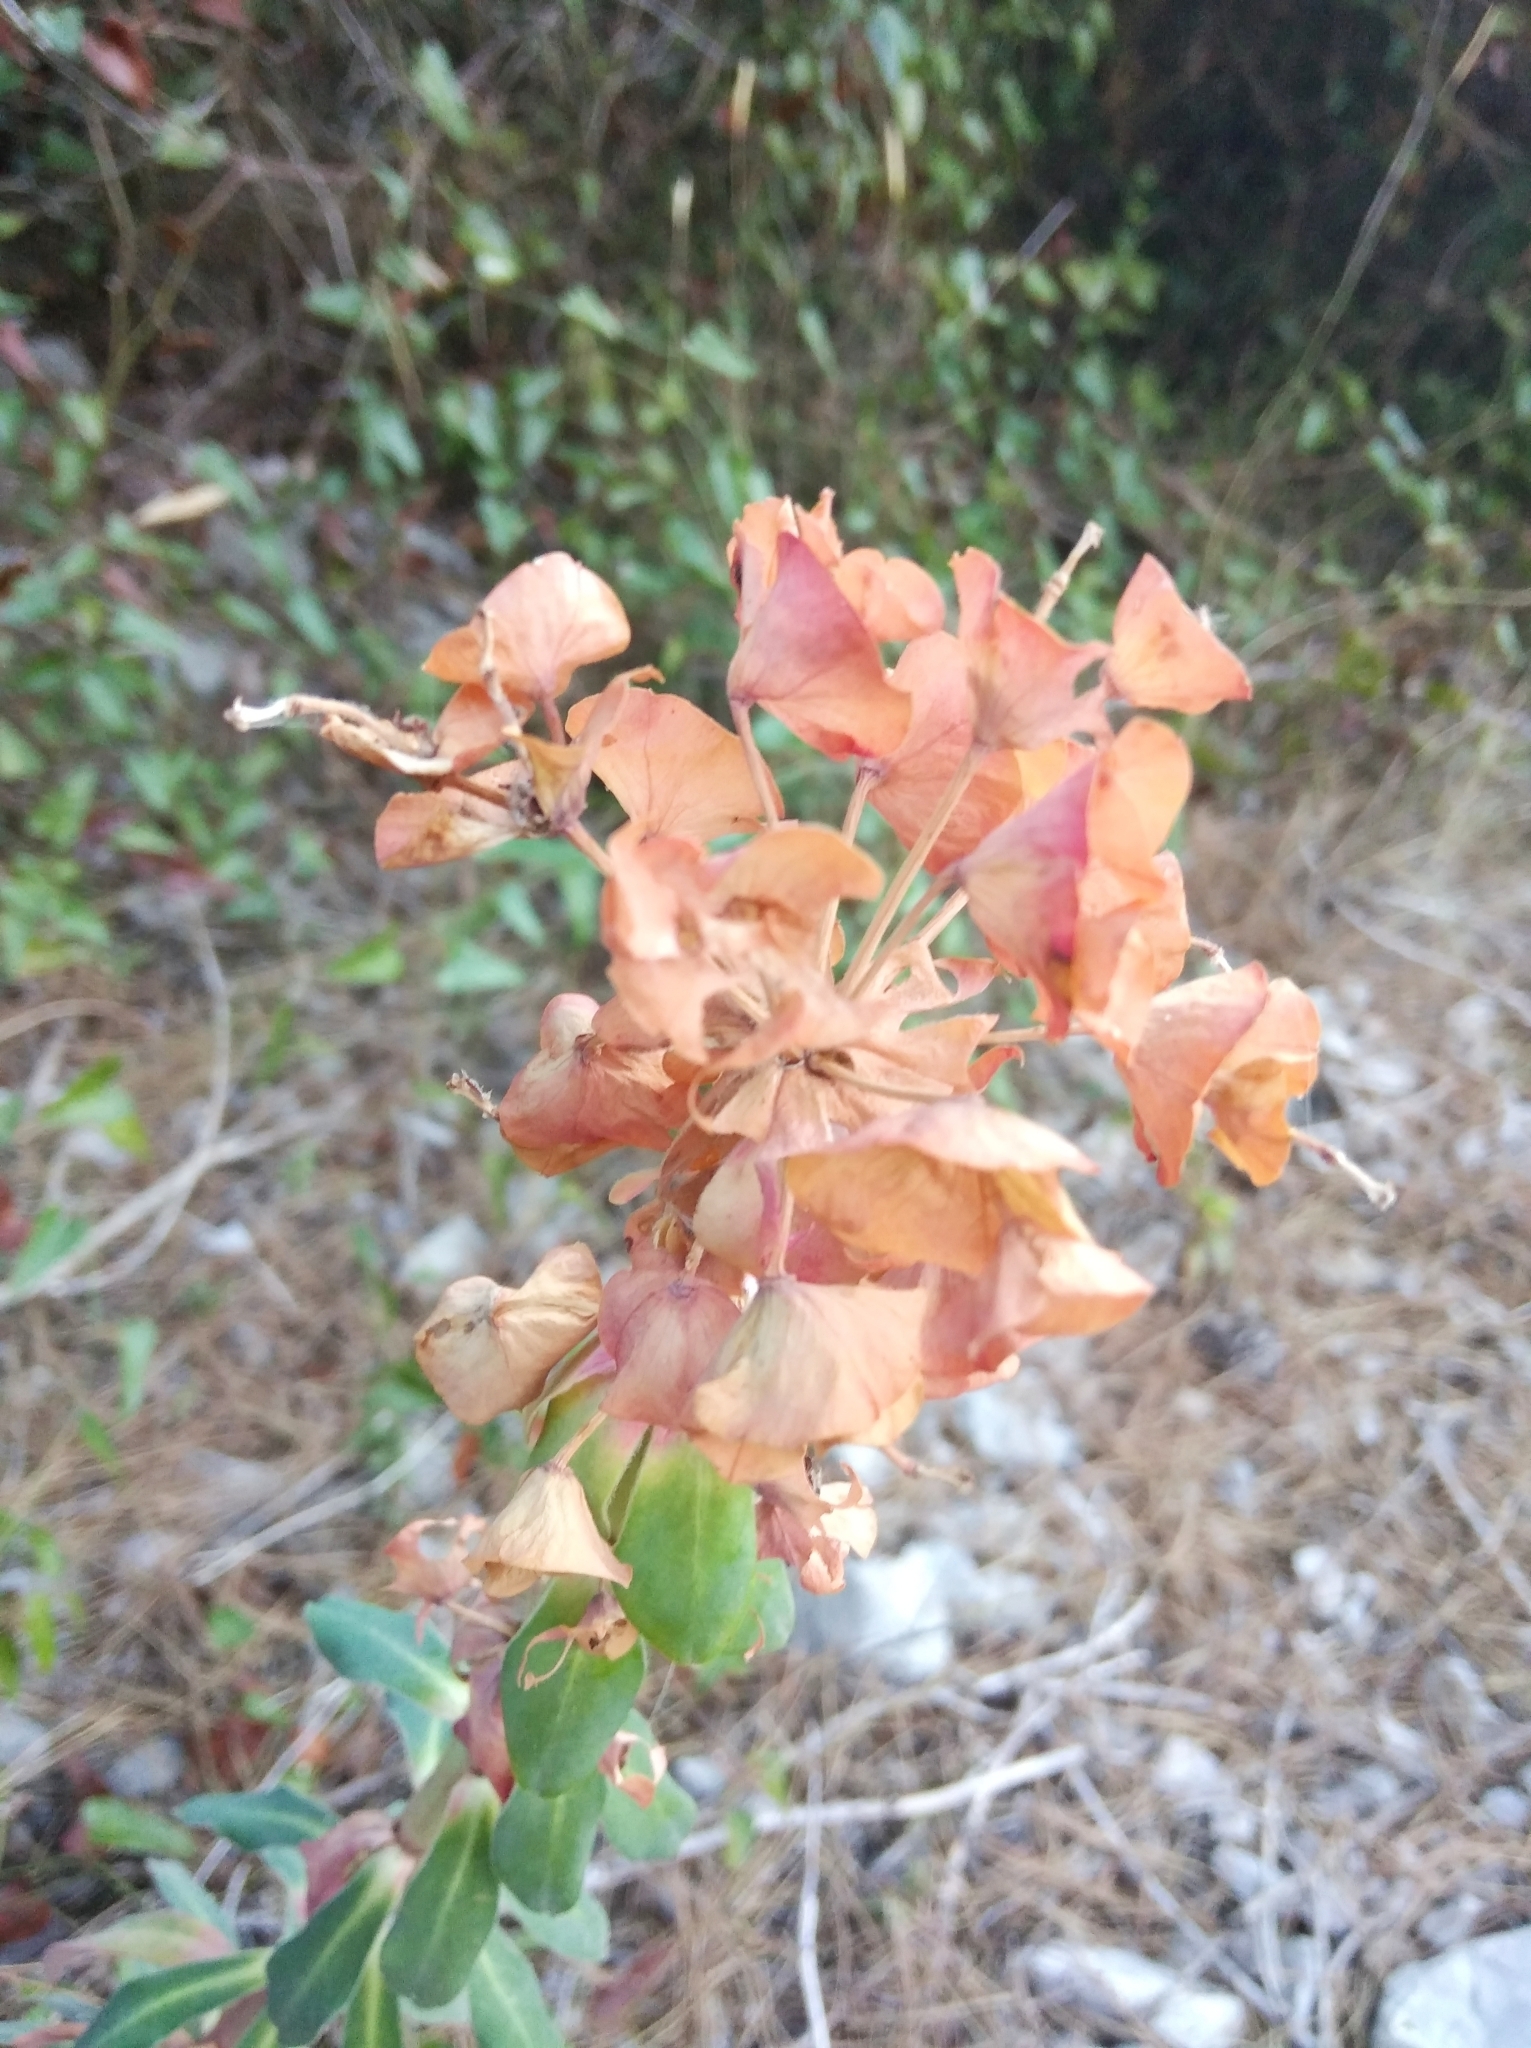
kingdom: Plantae
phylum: Tracheophyta
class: Magnoliopsida
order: Malpighiales
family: Euphorbiaceae
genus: Euphorbia
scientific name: Euphorbia characias
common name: Mediterranean spurge
